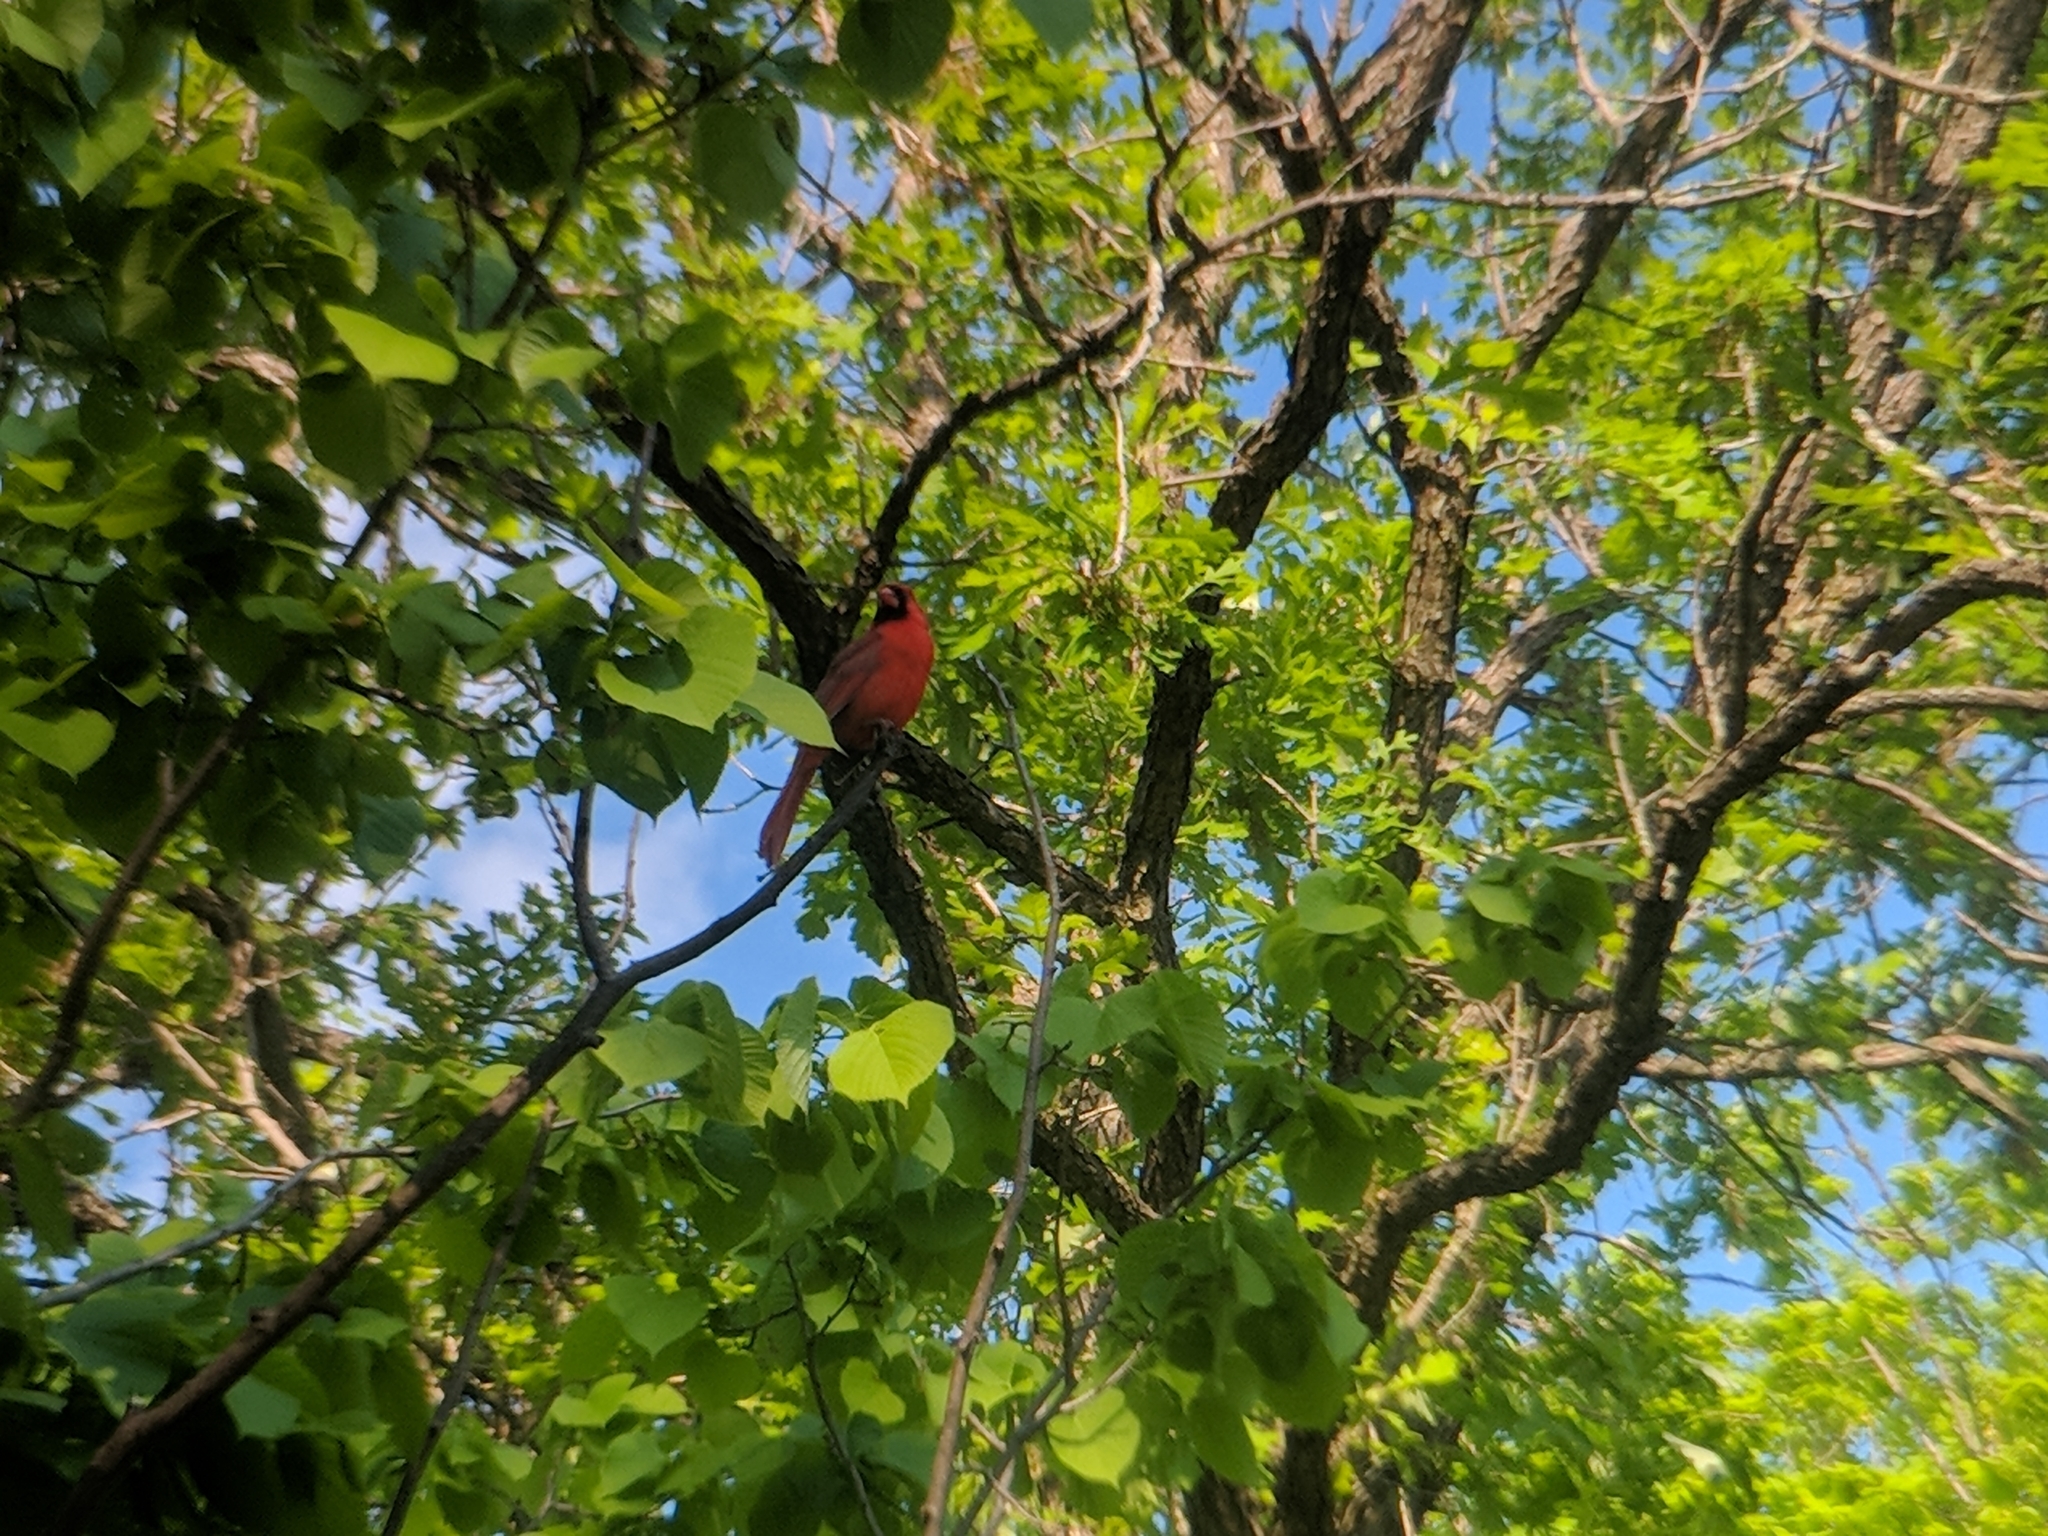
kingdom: Animalia
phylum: Chordata
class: Aves
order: Passeriformes
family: Cardinalidae
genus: Cardinalis
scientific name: Cardinalis cardinalis
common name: Northern cardinal
